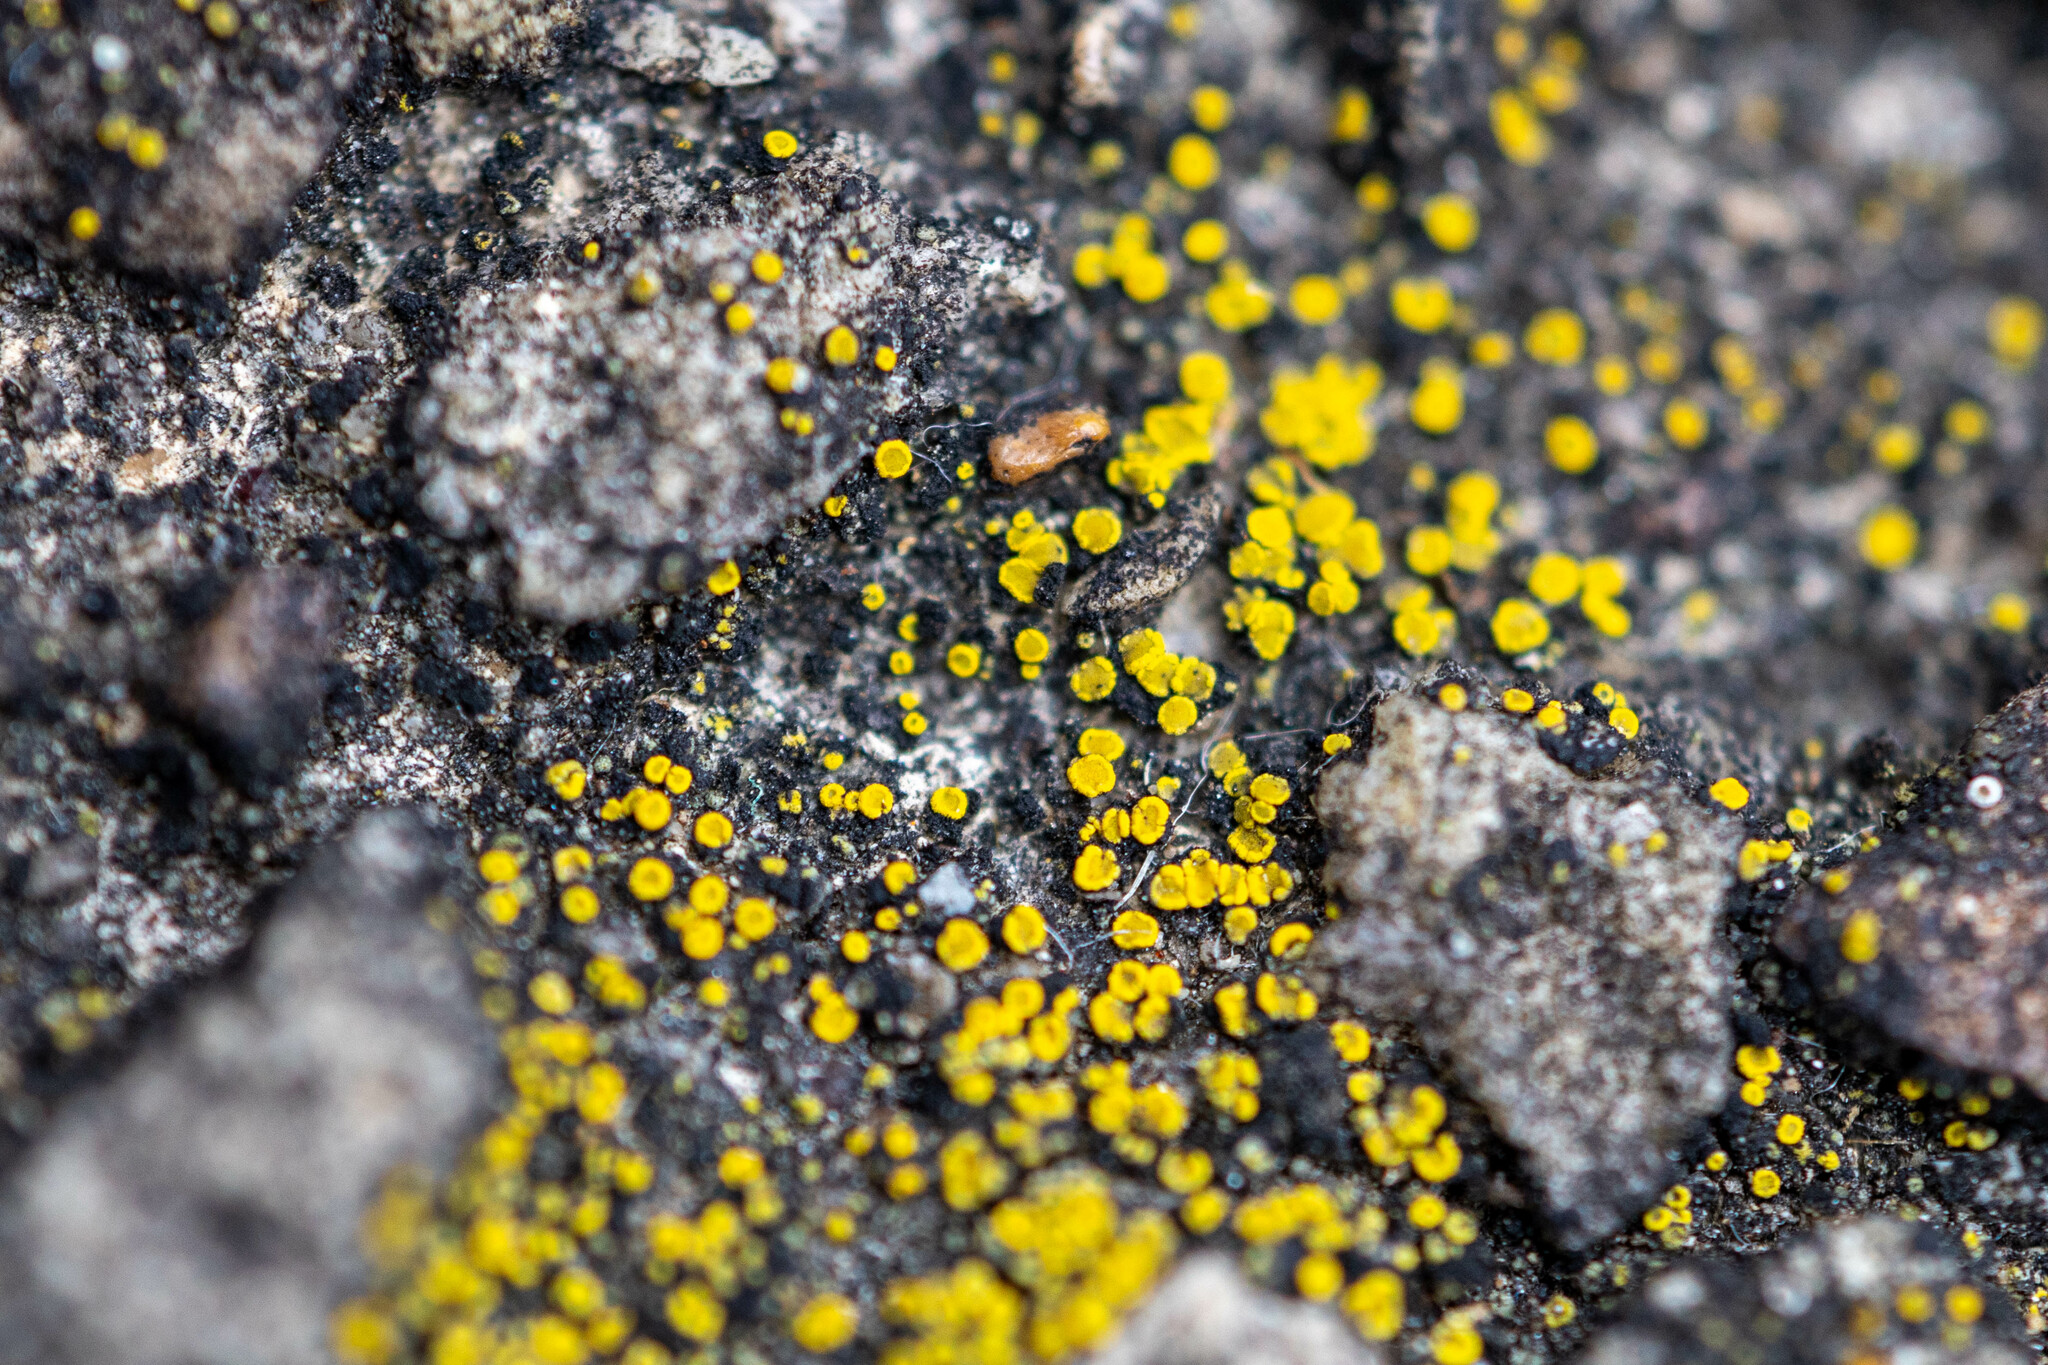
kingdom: Fungi
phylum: Ascomycota
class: Candelariomycetes
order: Candelariales
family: Candelariaceae
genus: Candelariella
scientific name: Candelariella vitellina
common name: Common goldspeck
